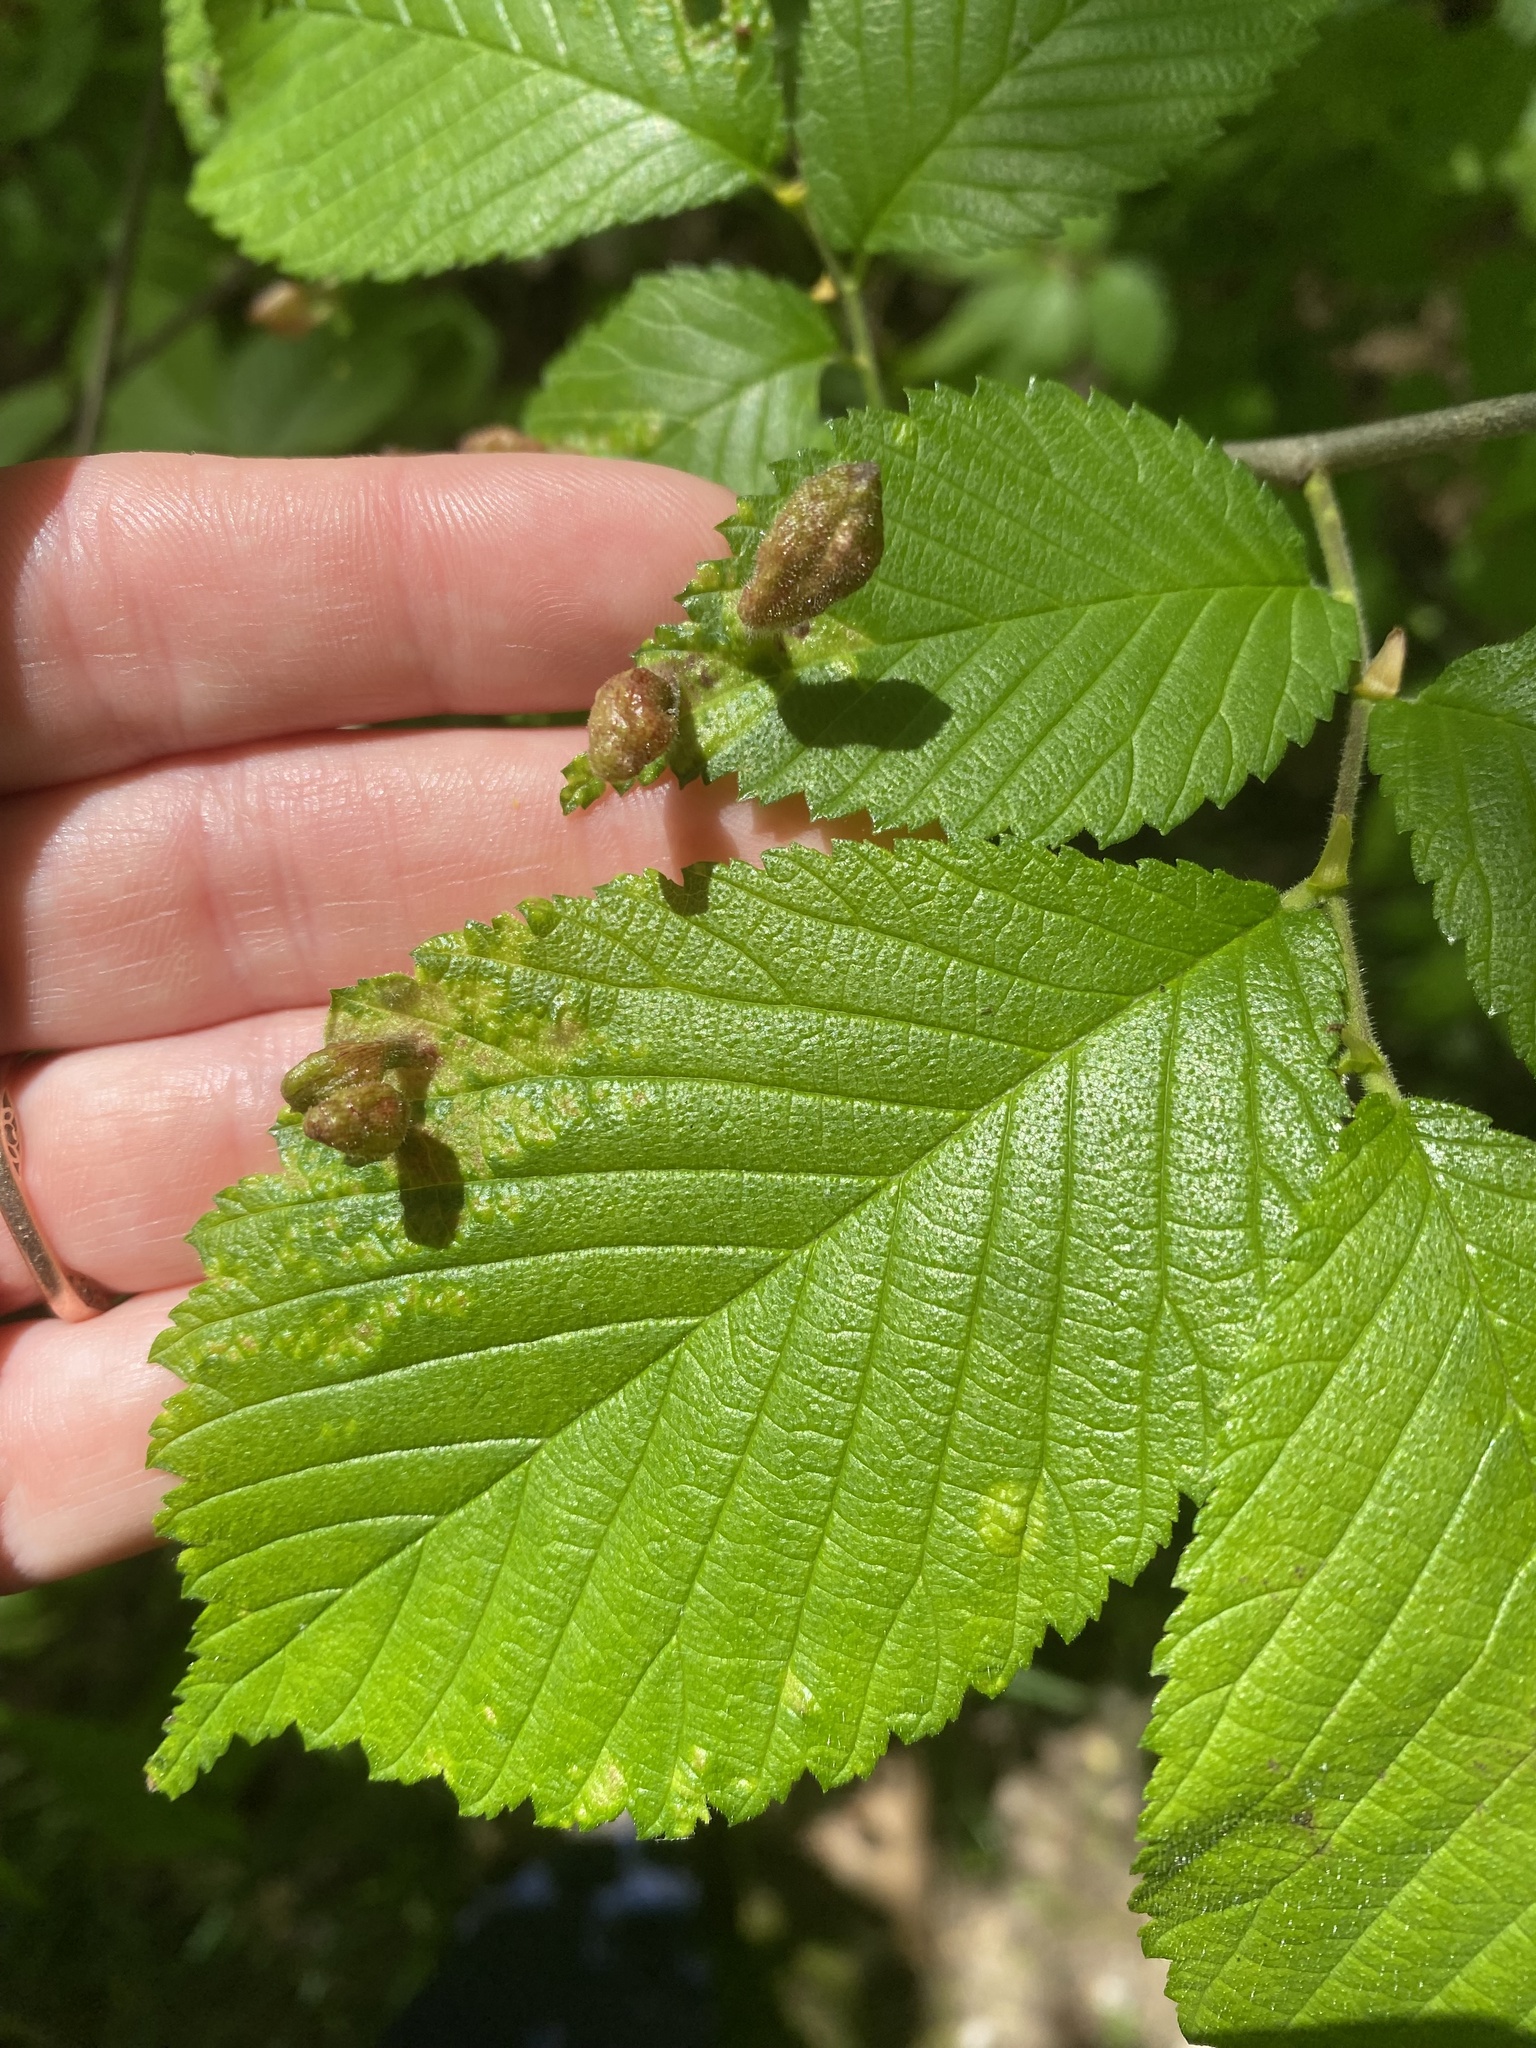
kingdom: Animalia
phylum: Arthropoda
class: Insecta
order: Hemiptera
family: Aphididae
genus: Tetraneura
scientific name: Tetraneura nigriabdominalis
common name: Aphid
